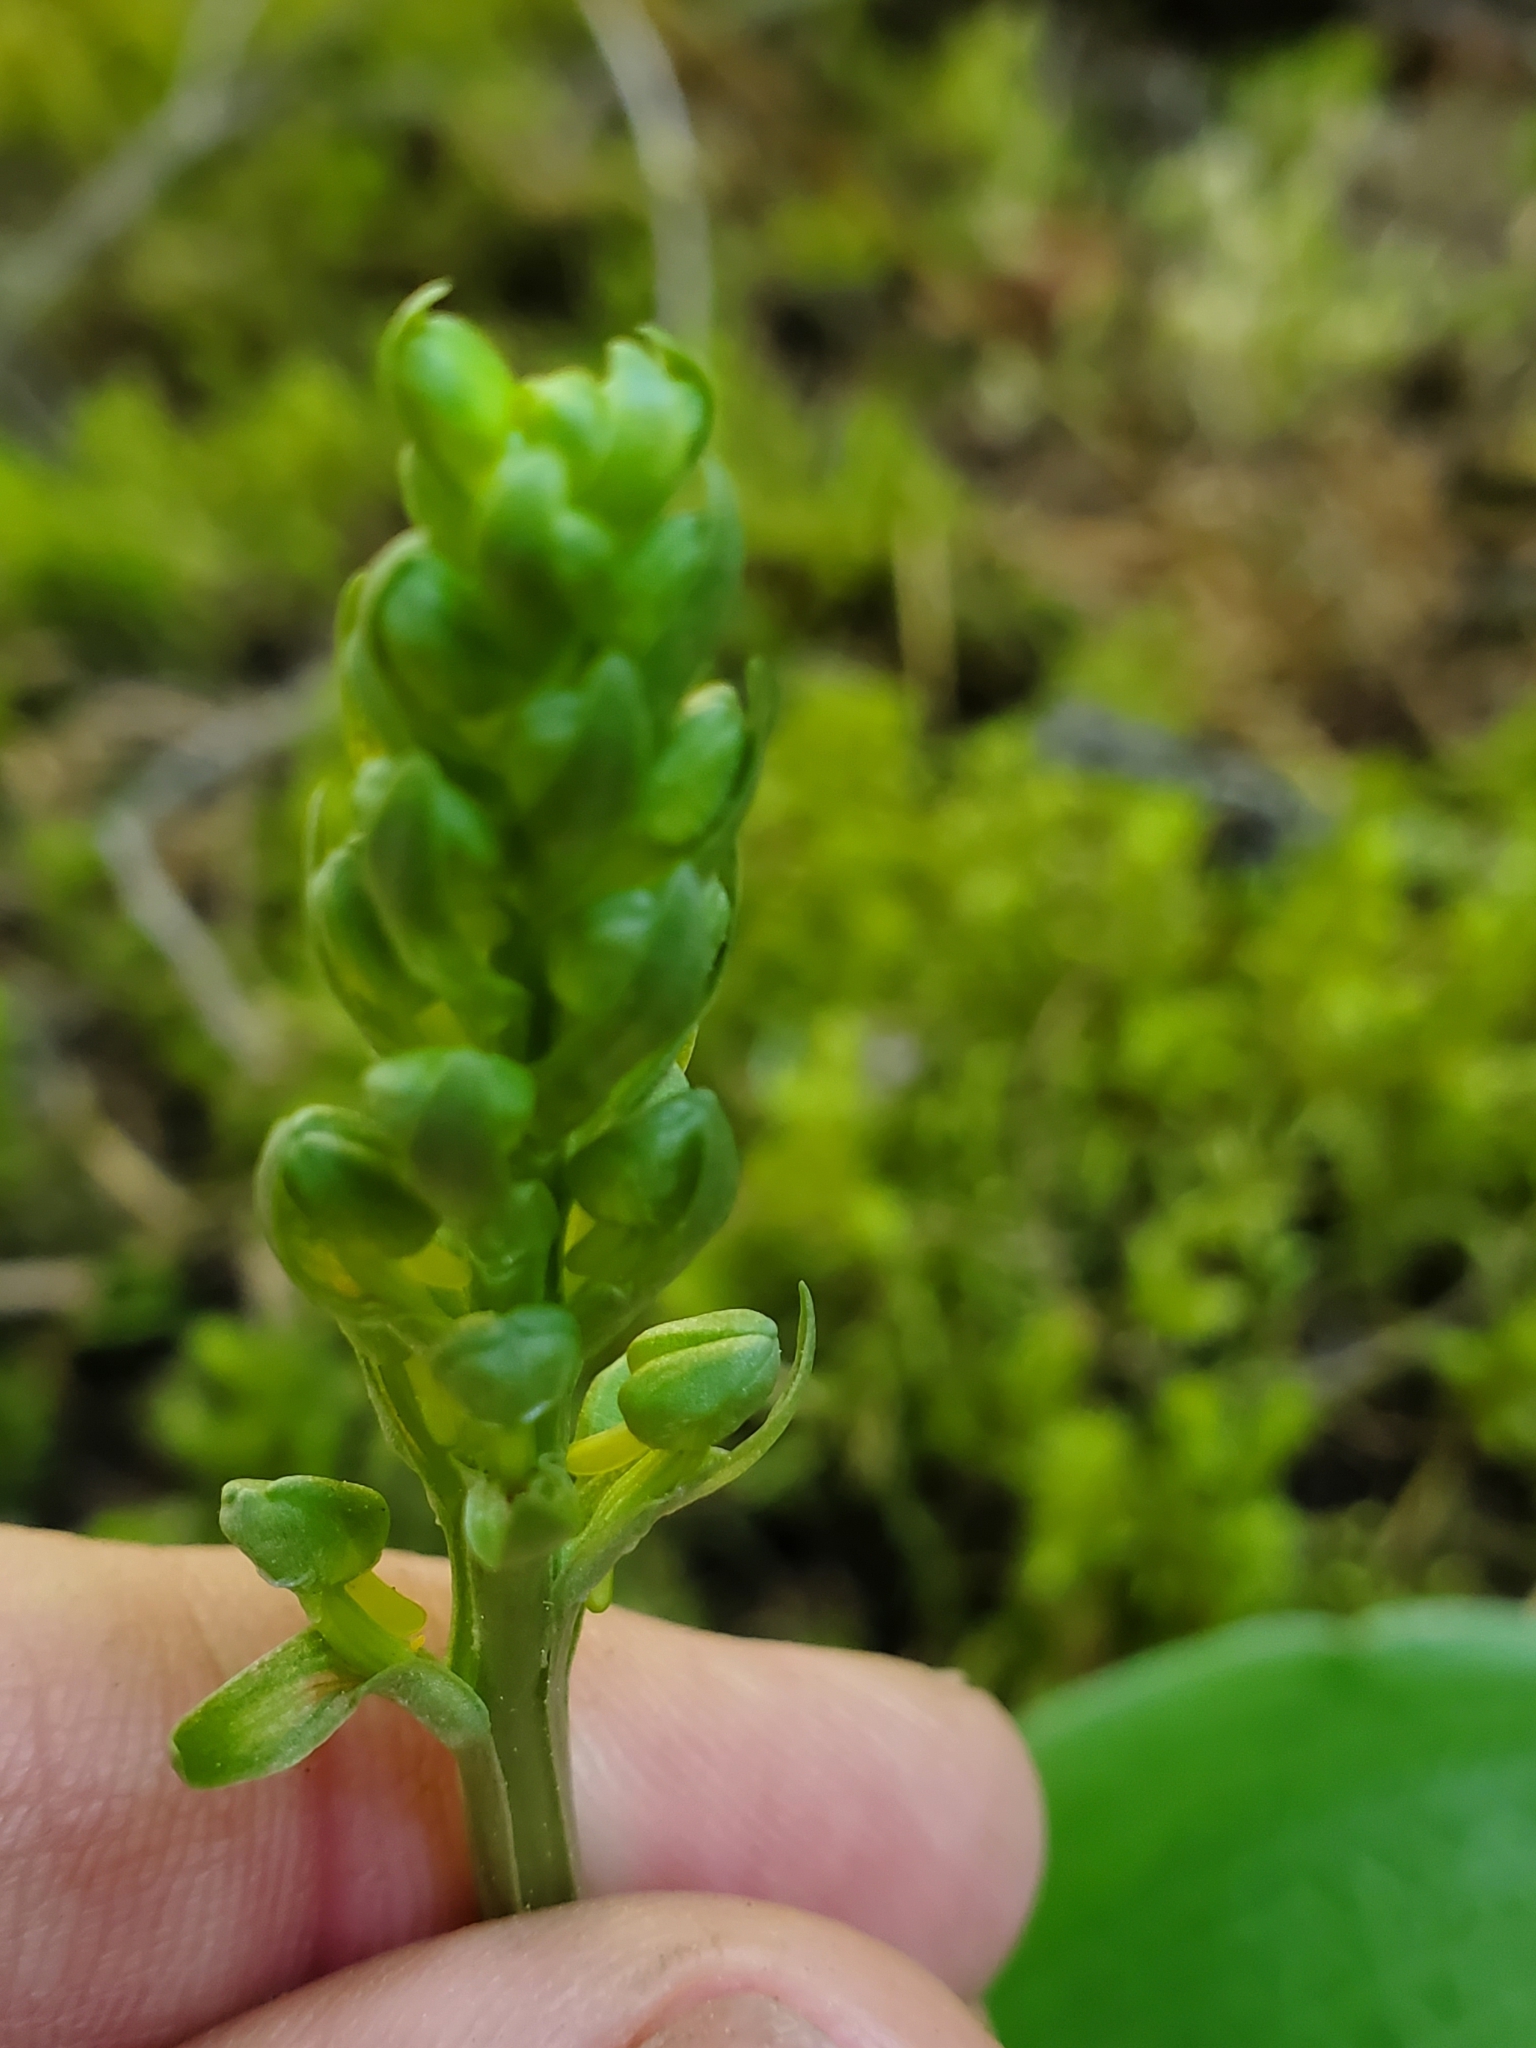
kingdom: Plantae
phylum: Tracheophyta
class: Liliopsida
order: Asparagales
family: Orchidaceae
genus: Platanthera
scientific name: Platanthera orbiculata
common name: Large round-leaved orchid
